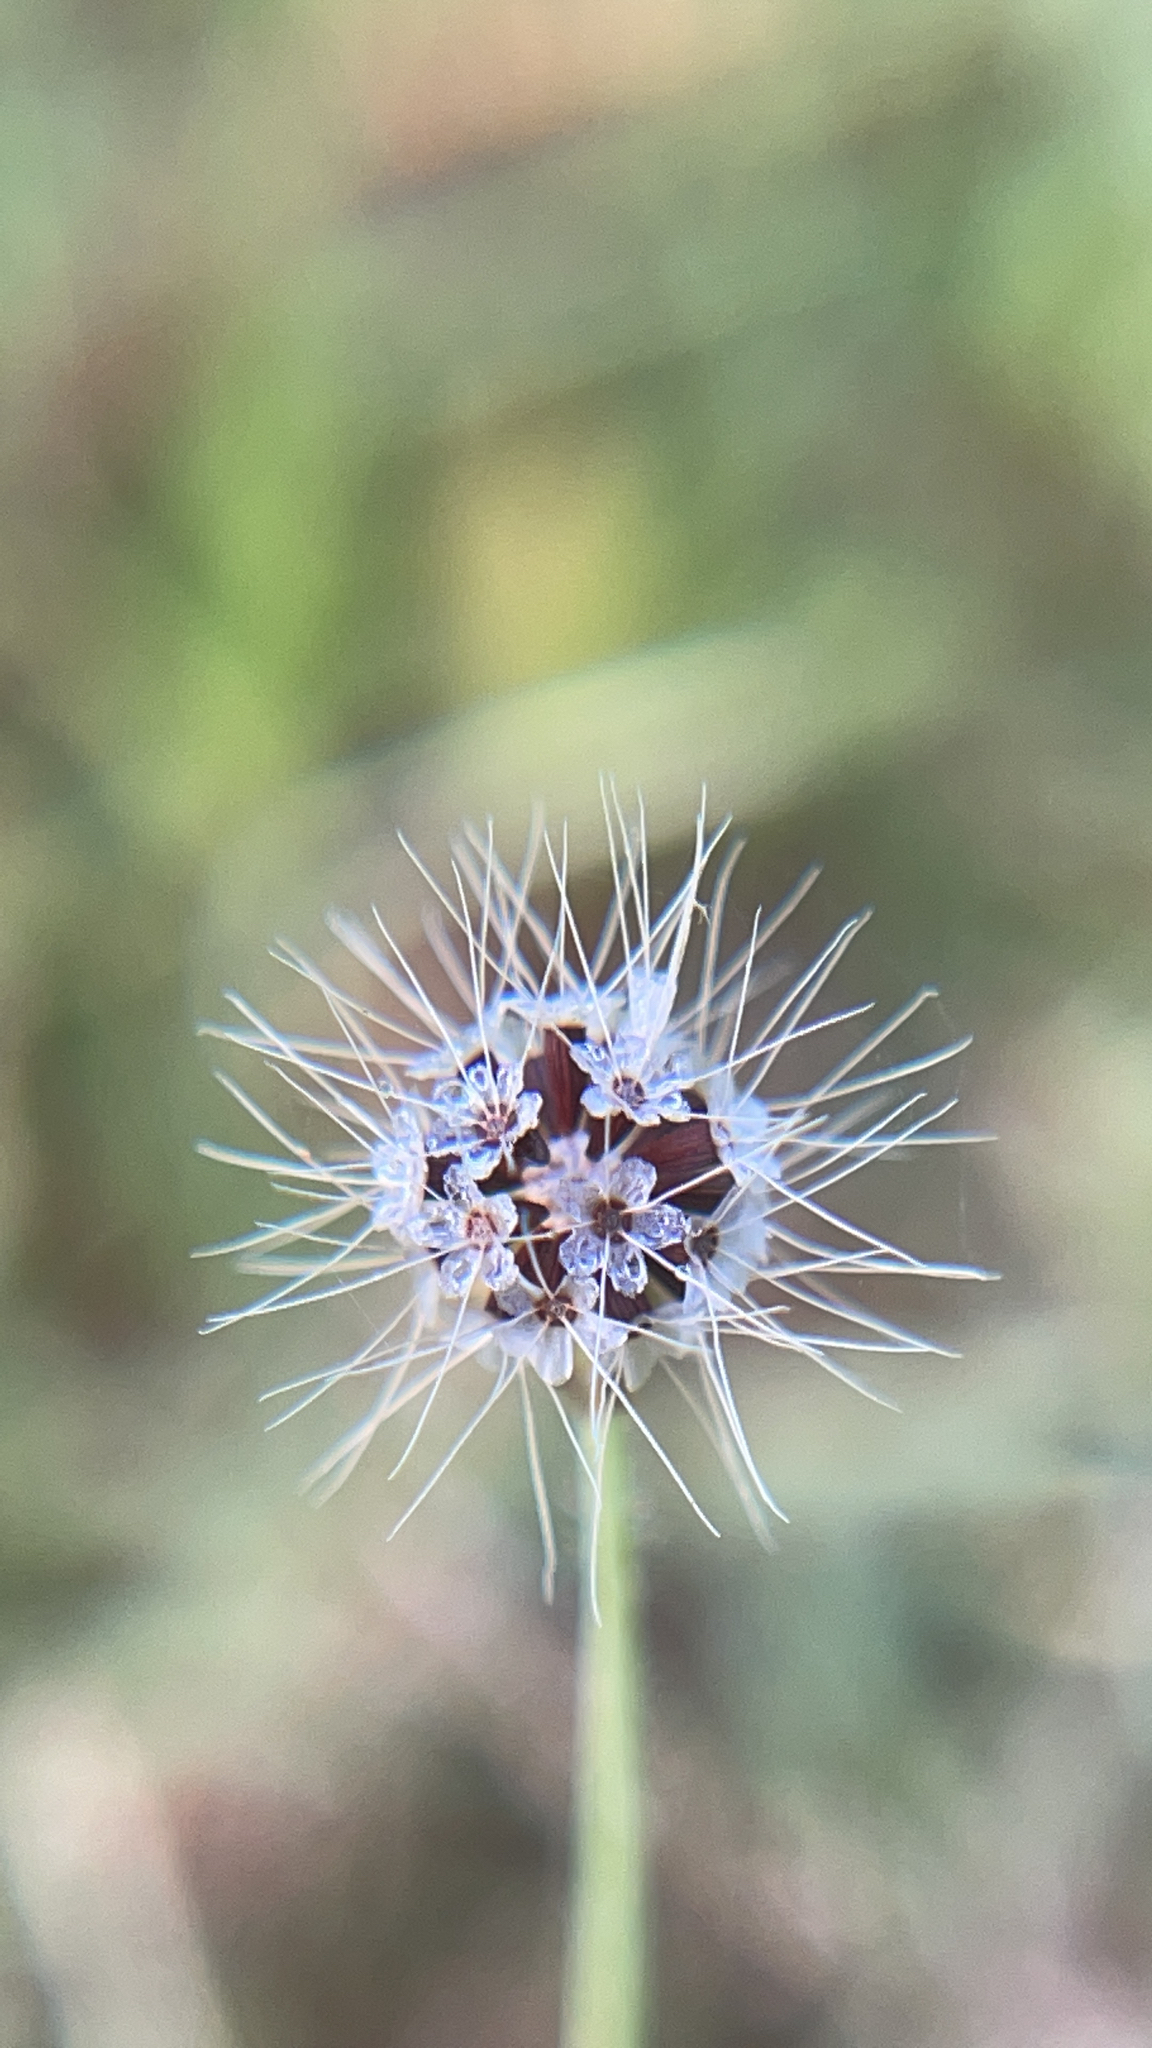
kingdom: Plantae
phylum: Tracheophyta
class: Magnoliopsida
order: Asterales
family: Asteraceae
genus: Krigia
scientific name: Krigia virginica
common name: Virginia dwarf-dandelion
